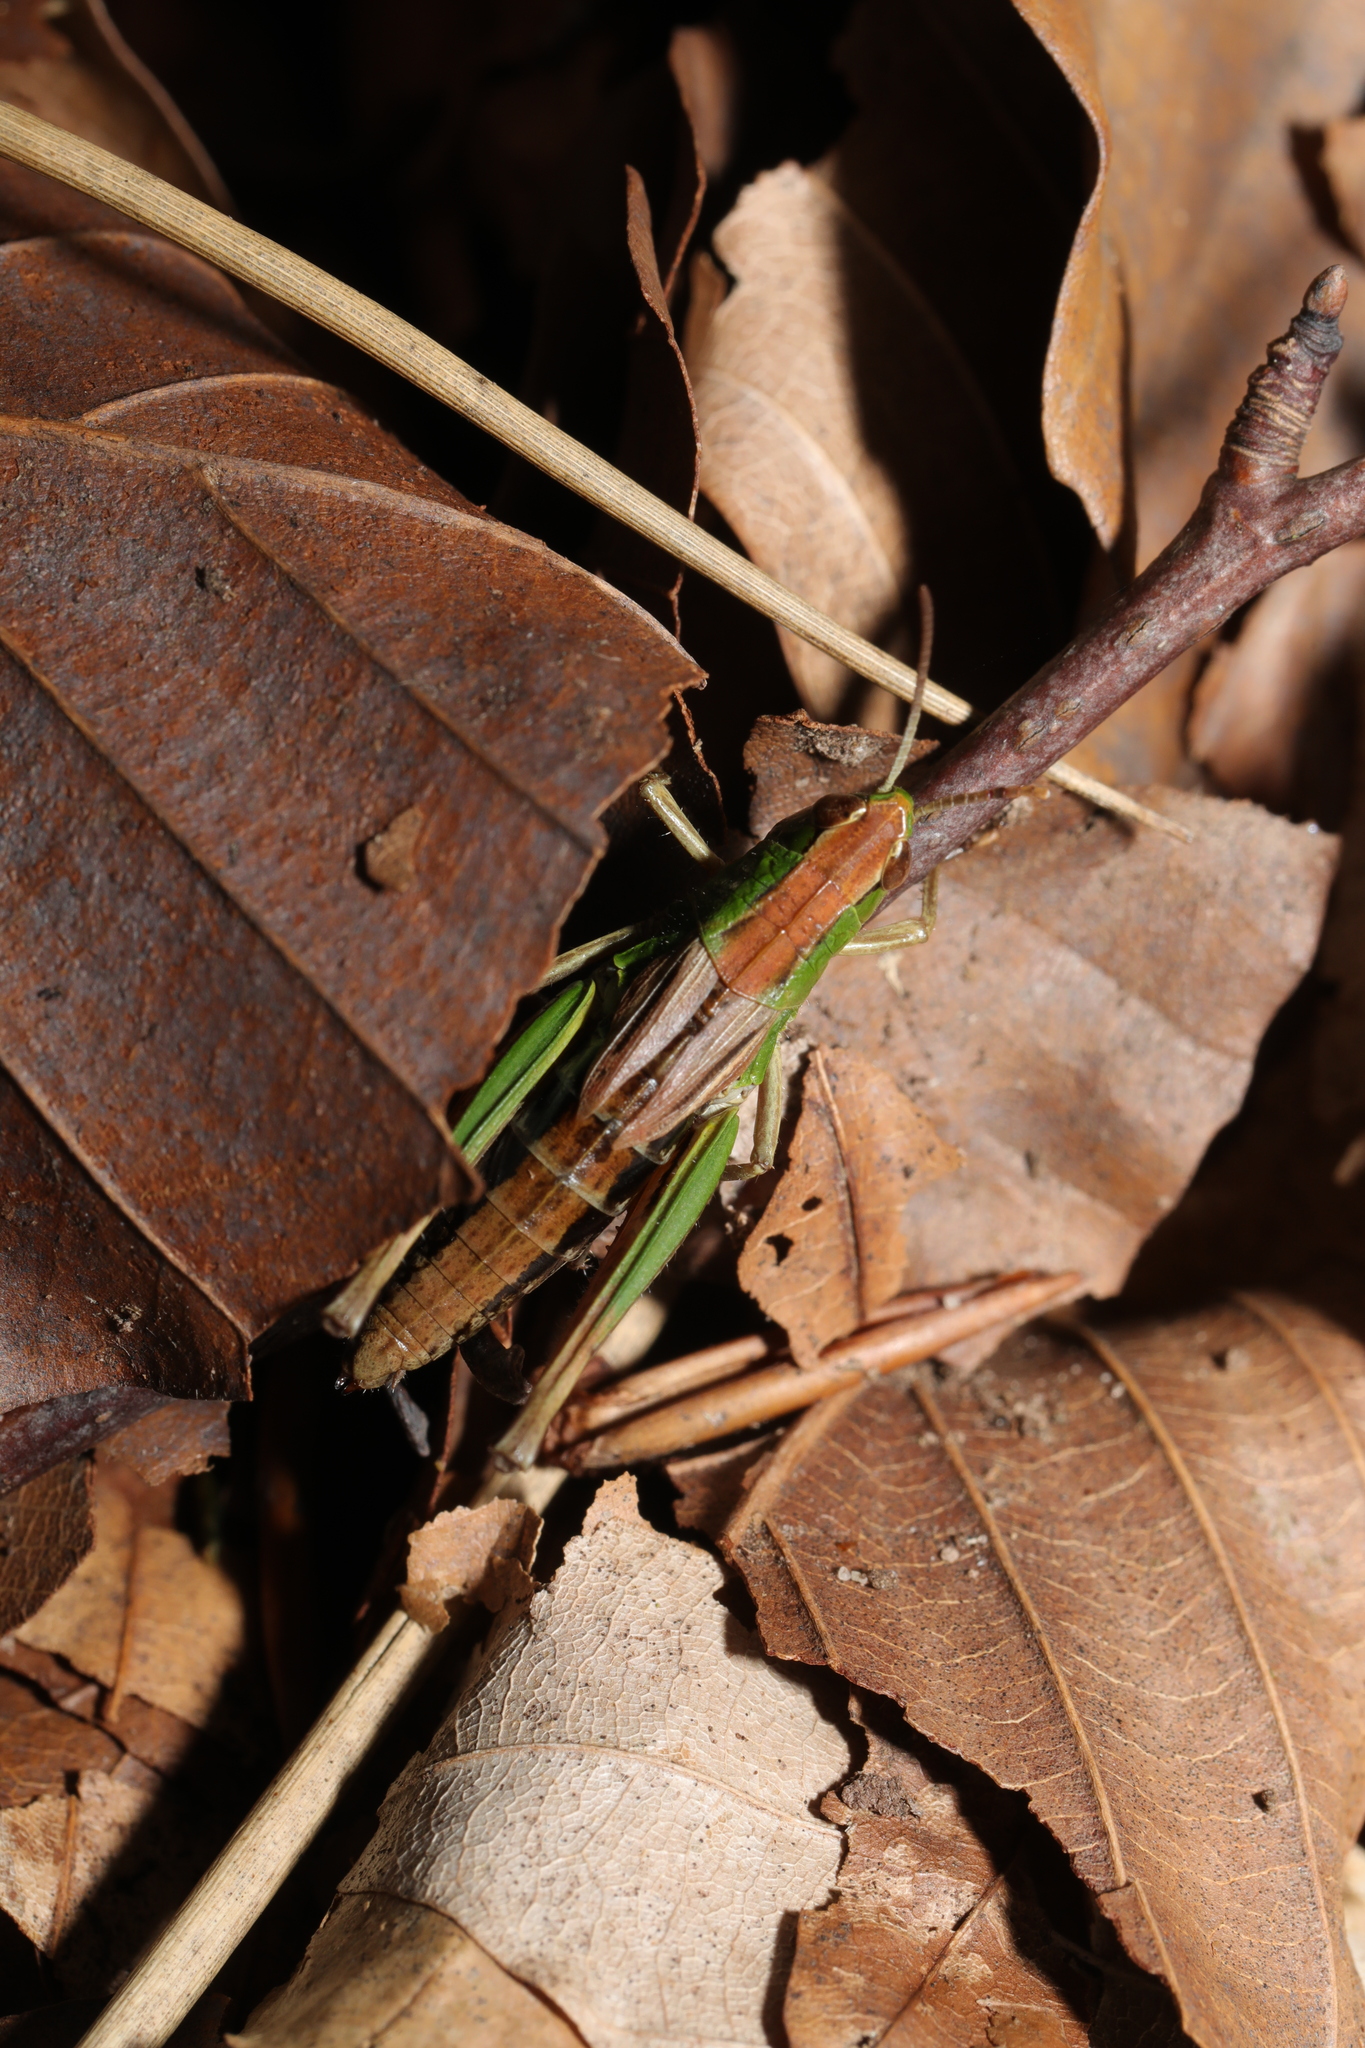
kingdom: Animalia
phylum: Arthropoda
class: Insecta
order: Orthoptera
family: Acrididae
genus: Pseudochorthippus
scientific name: Pseudochorthippus parallelus
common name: Meadow grasshopper
